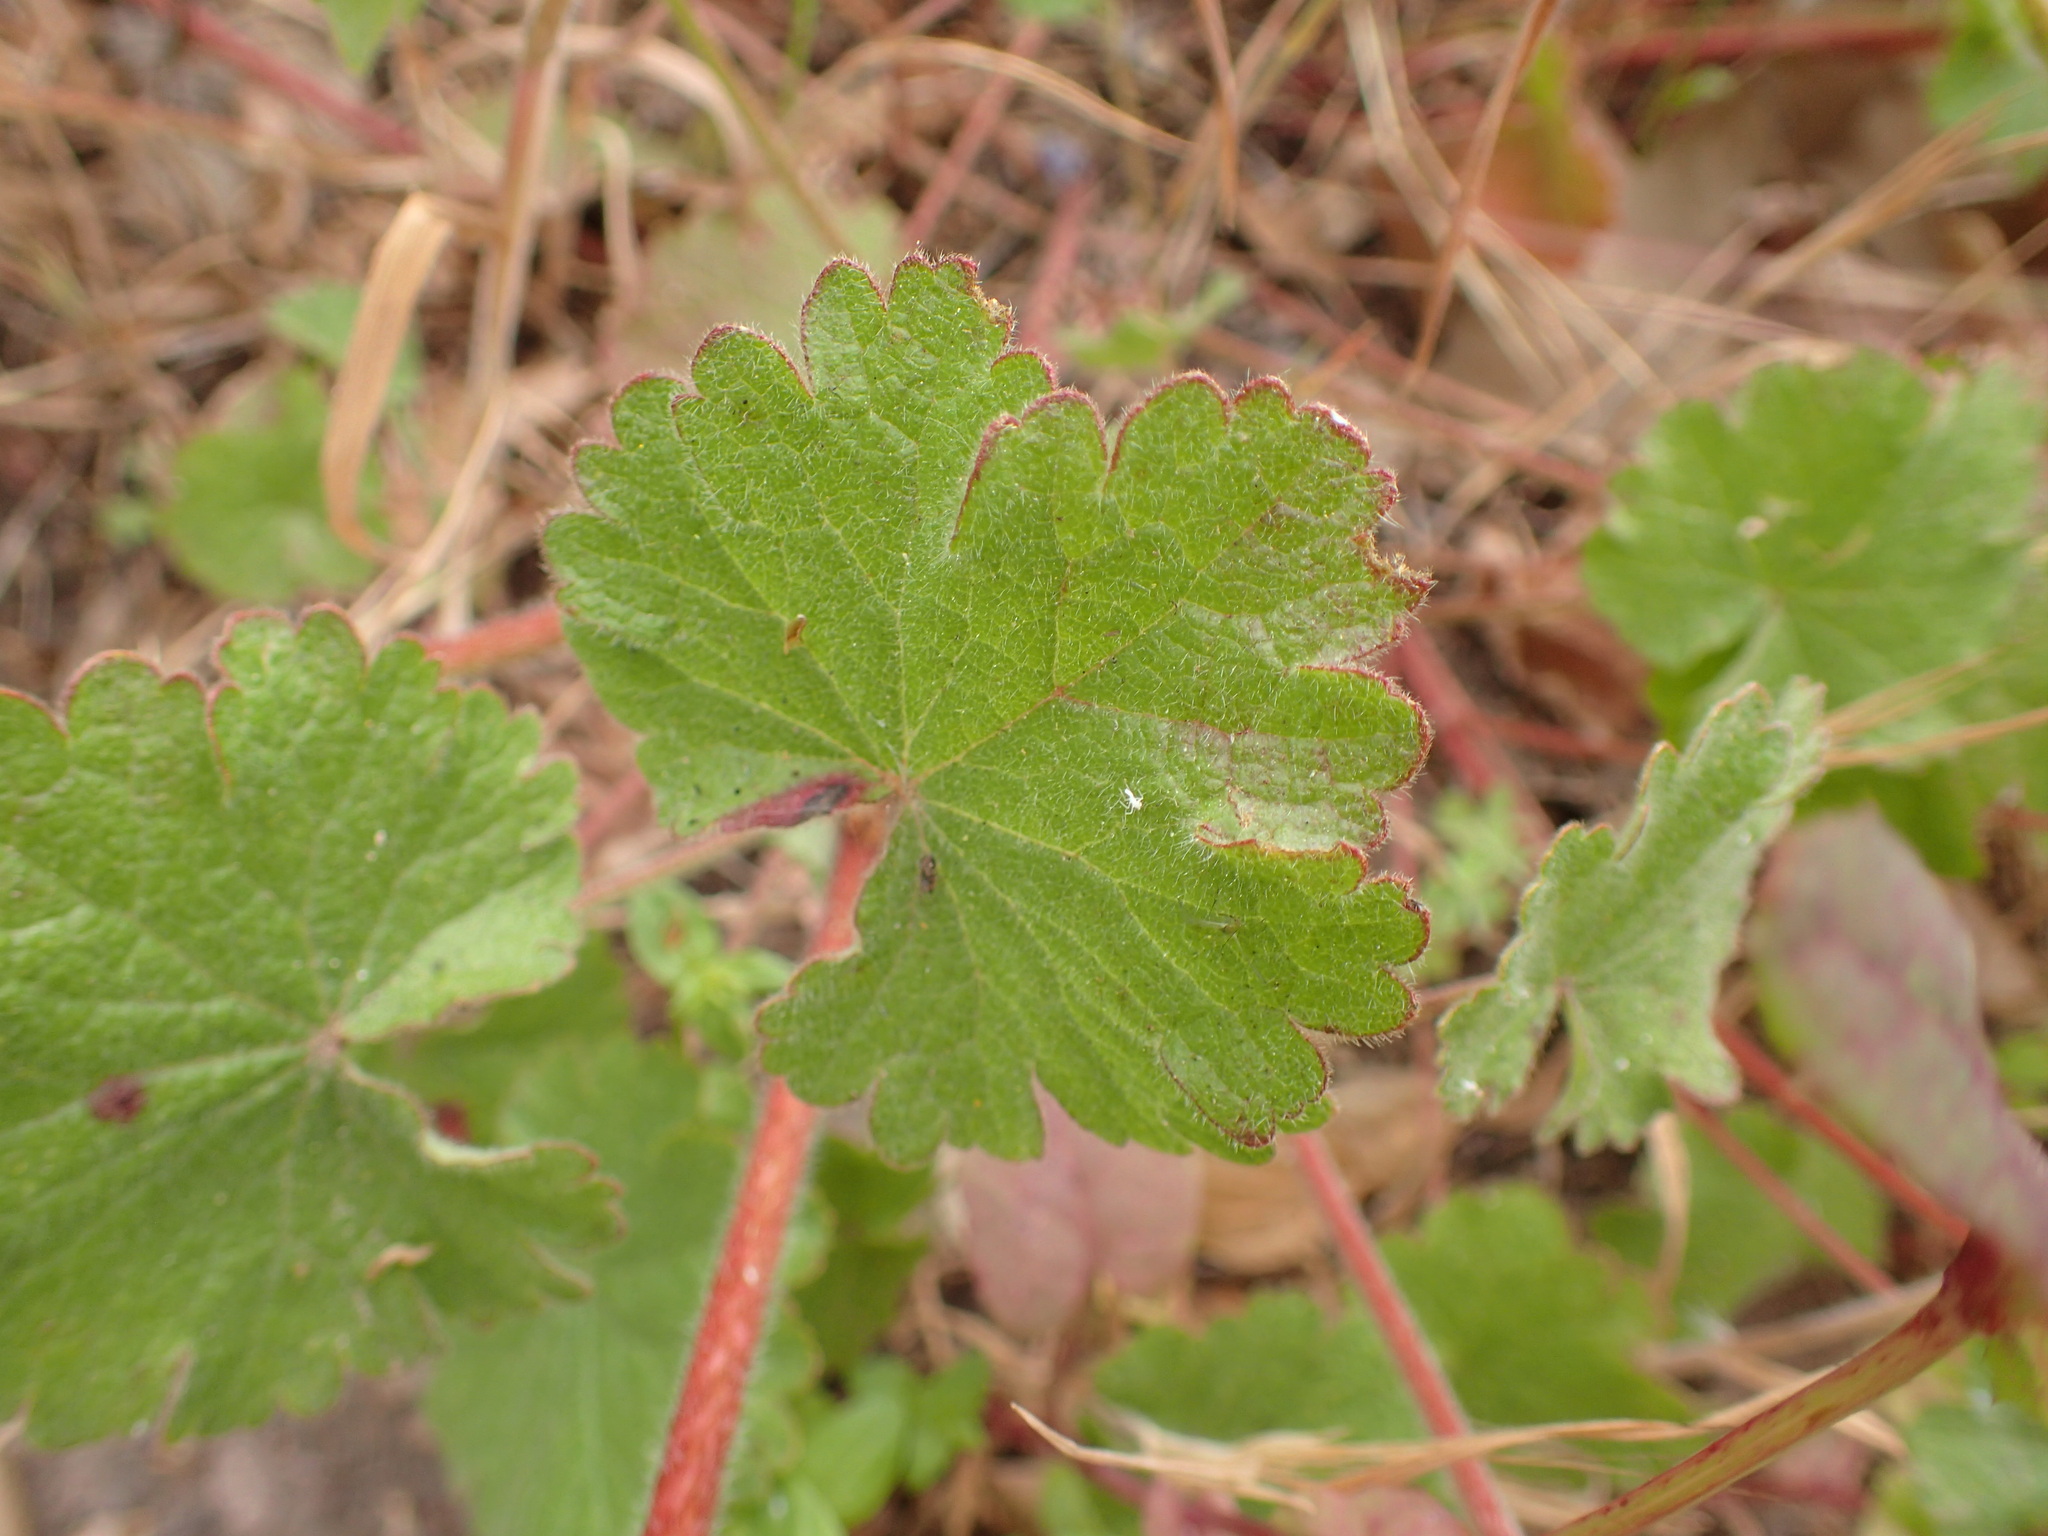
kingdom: Plantae
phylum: Tracheophyta
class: Magnoliopsida
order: Malvales
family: Malvaceae
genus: Sidalcea
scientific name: Sidalcea malviflora
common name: Greek mallow
